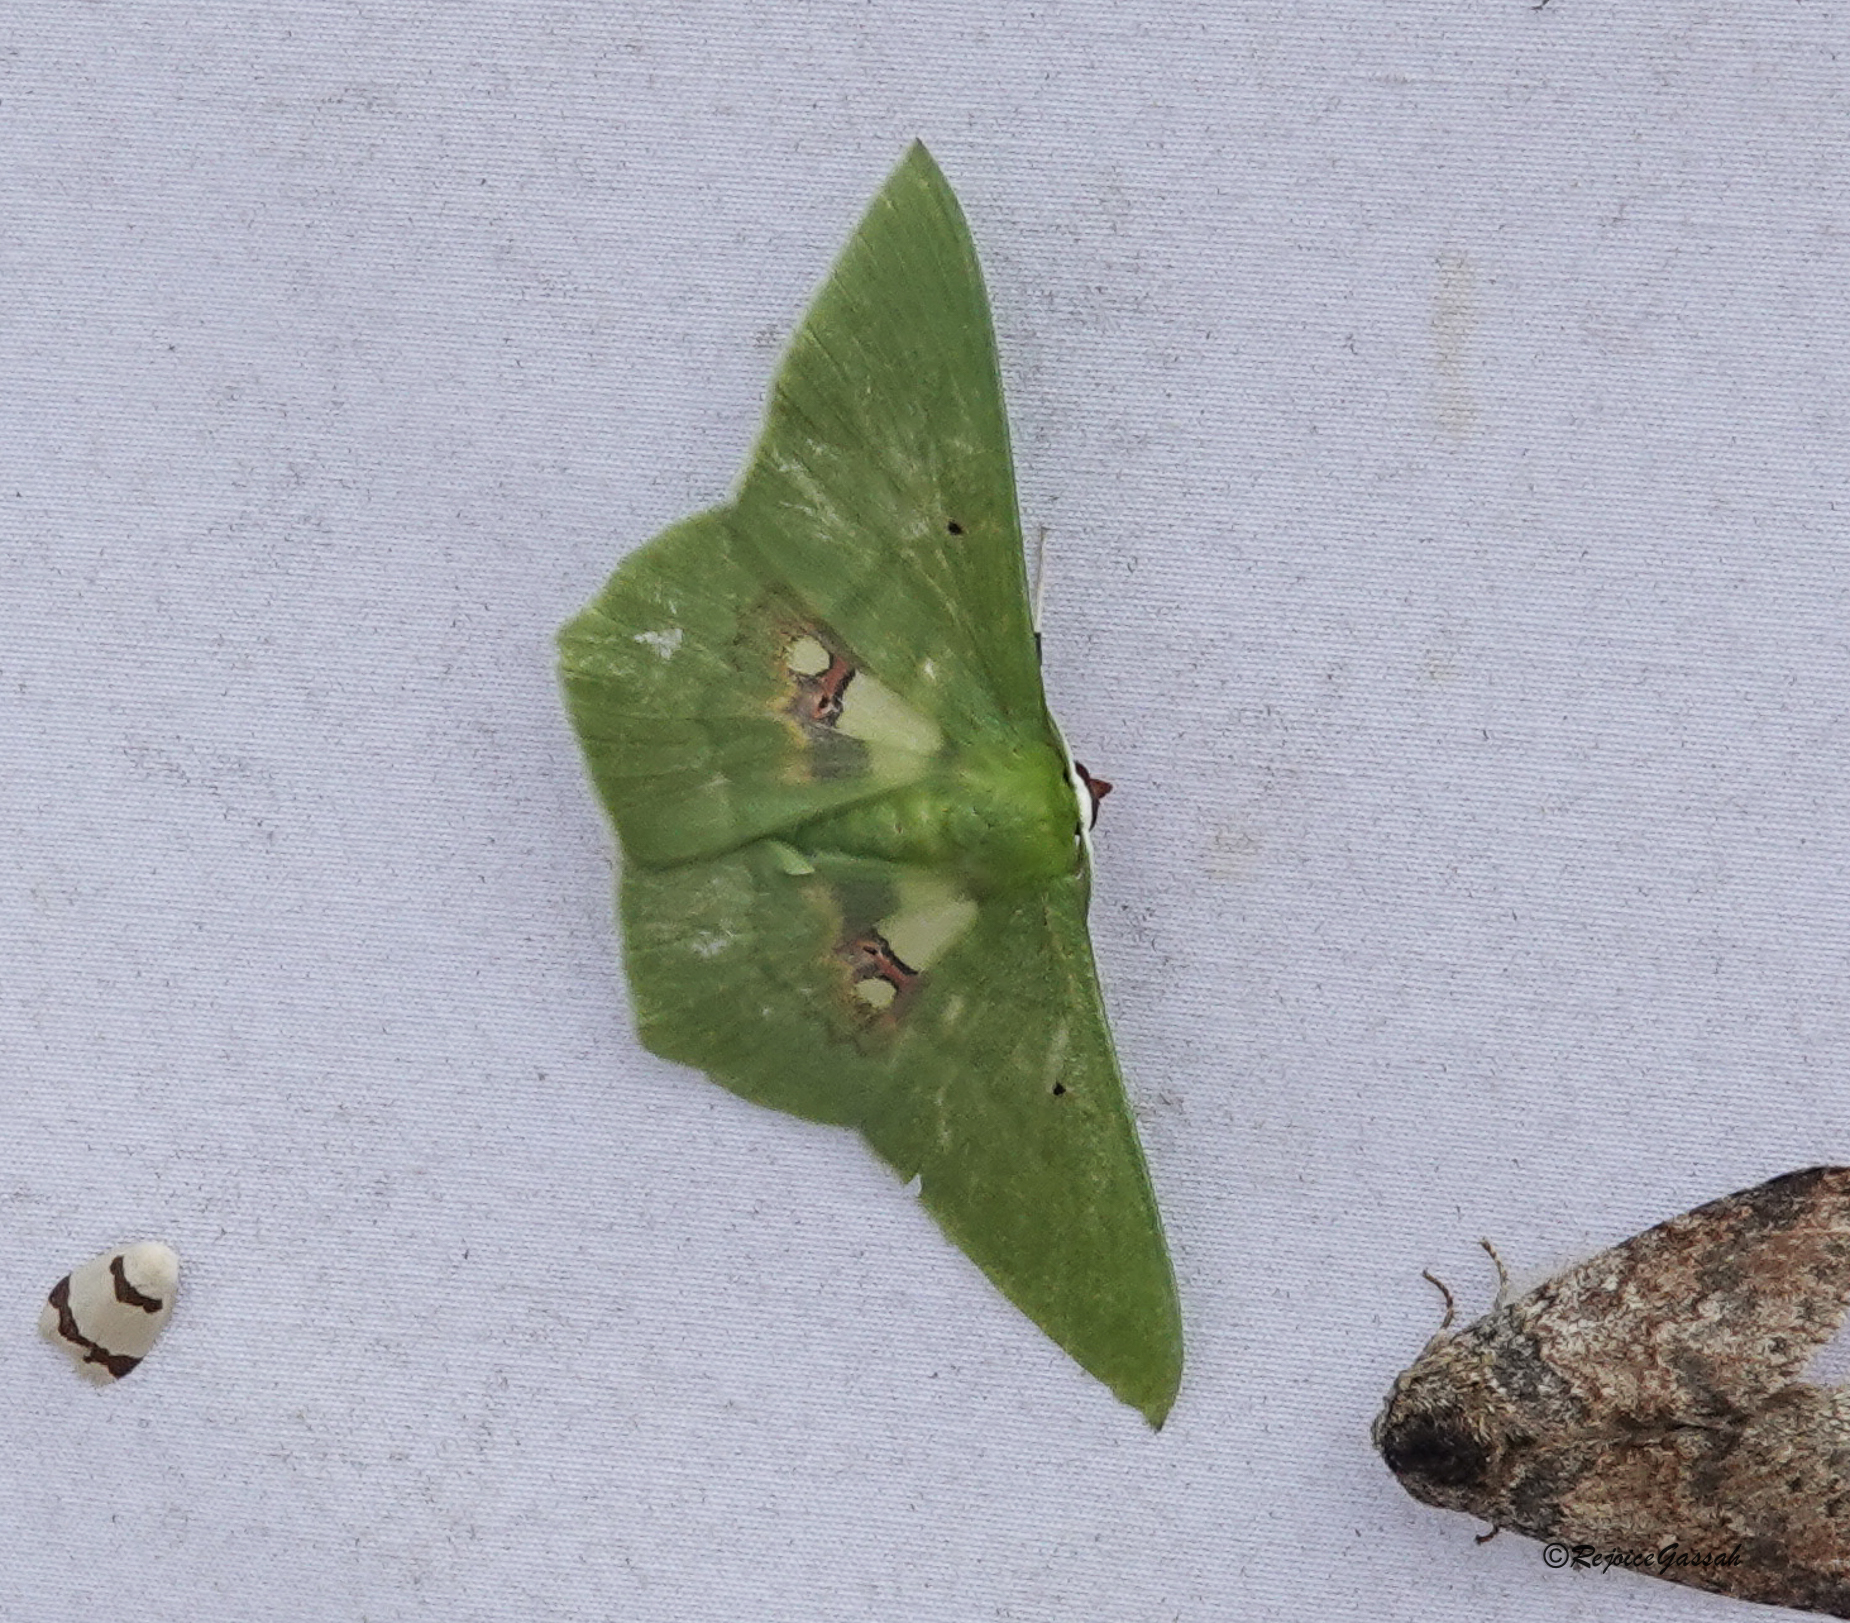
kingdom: Animalia
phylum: Arthropoda
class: Insecta
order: Lepidoptera
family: Geometridae
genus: Aporandria
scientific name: Aporandria specularia
